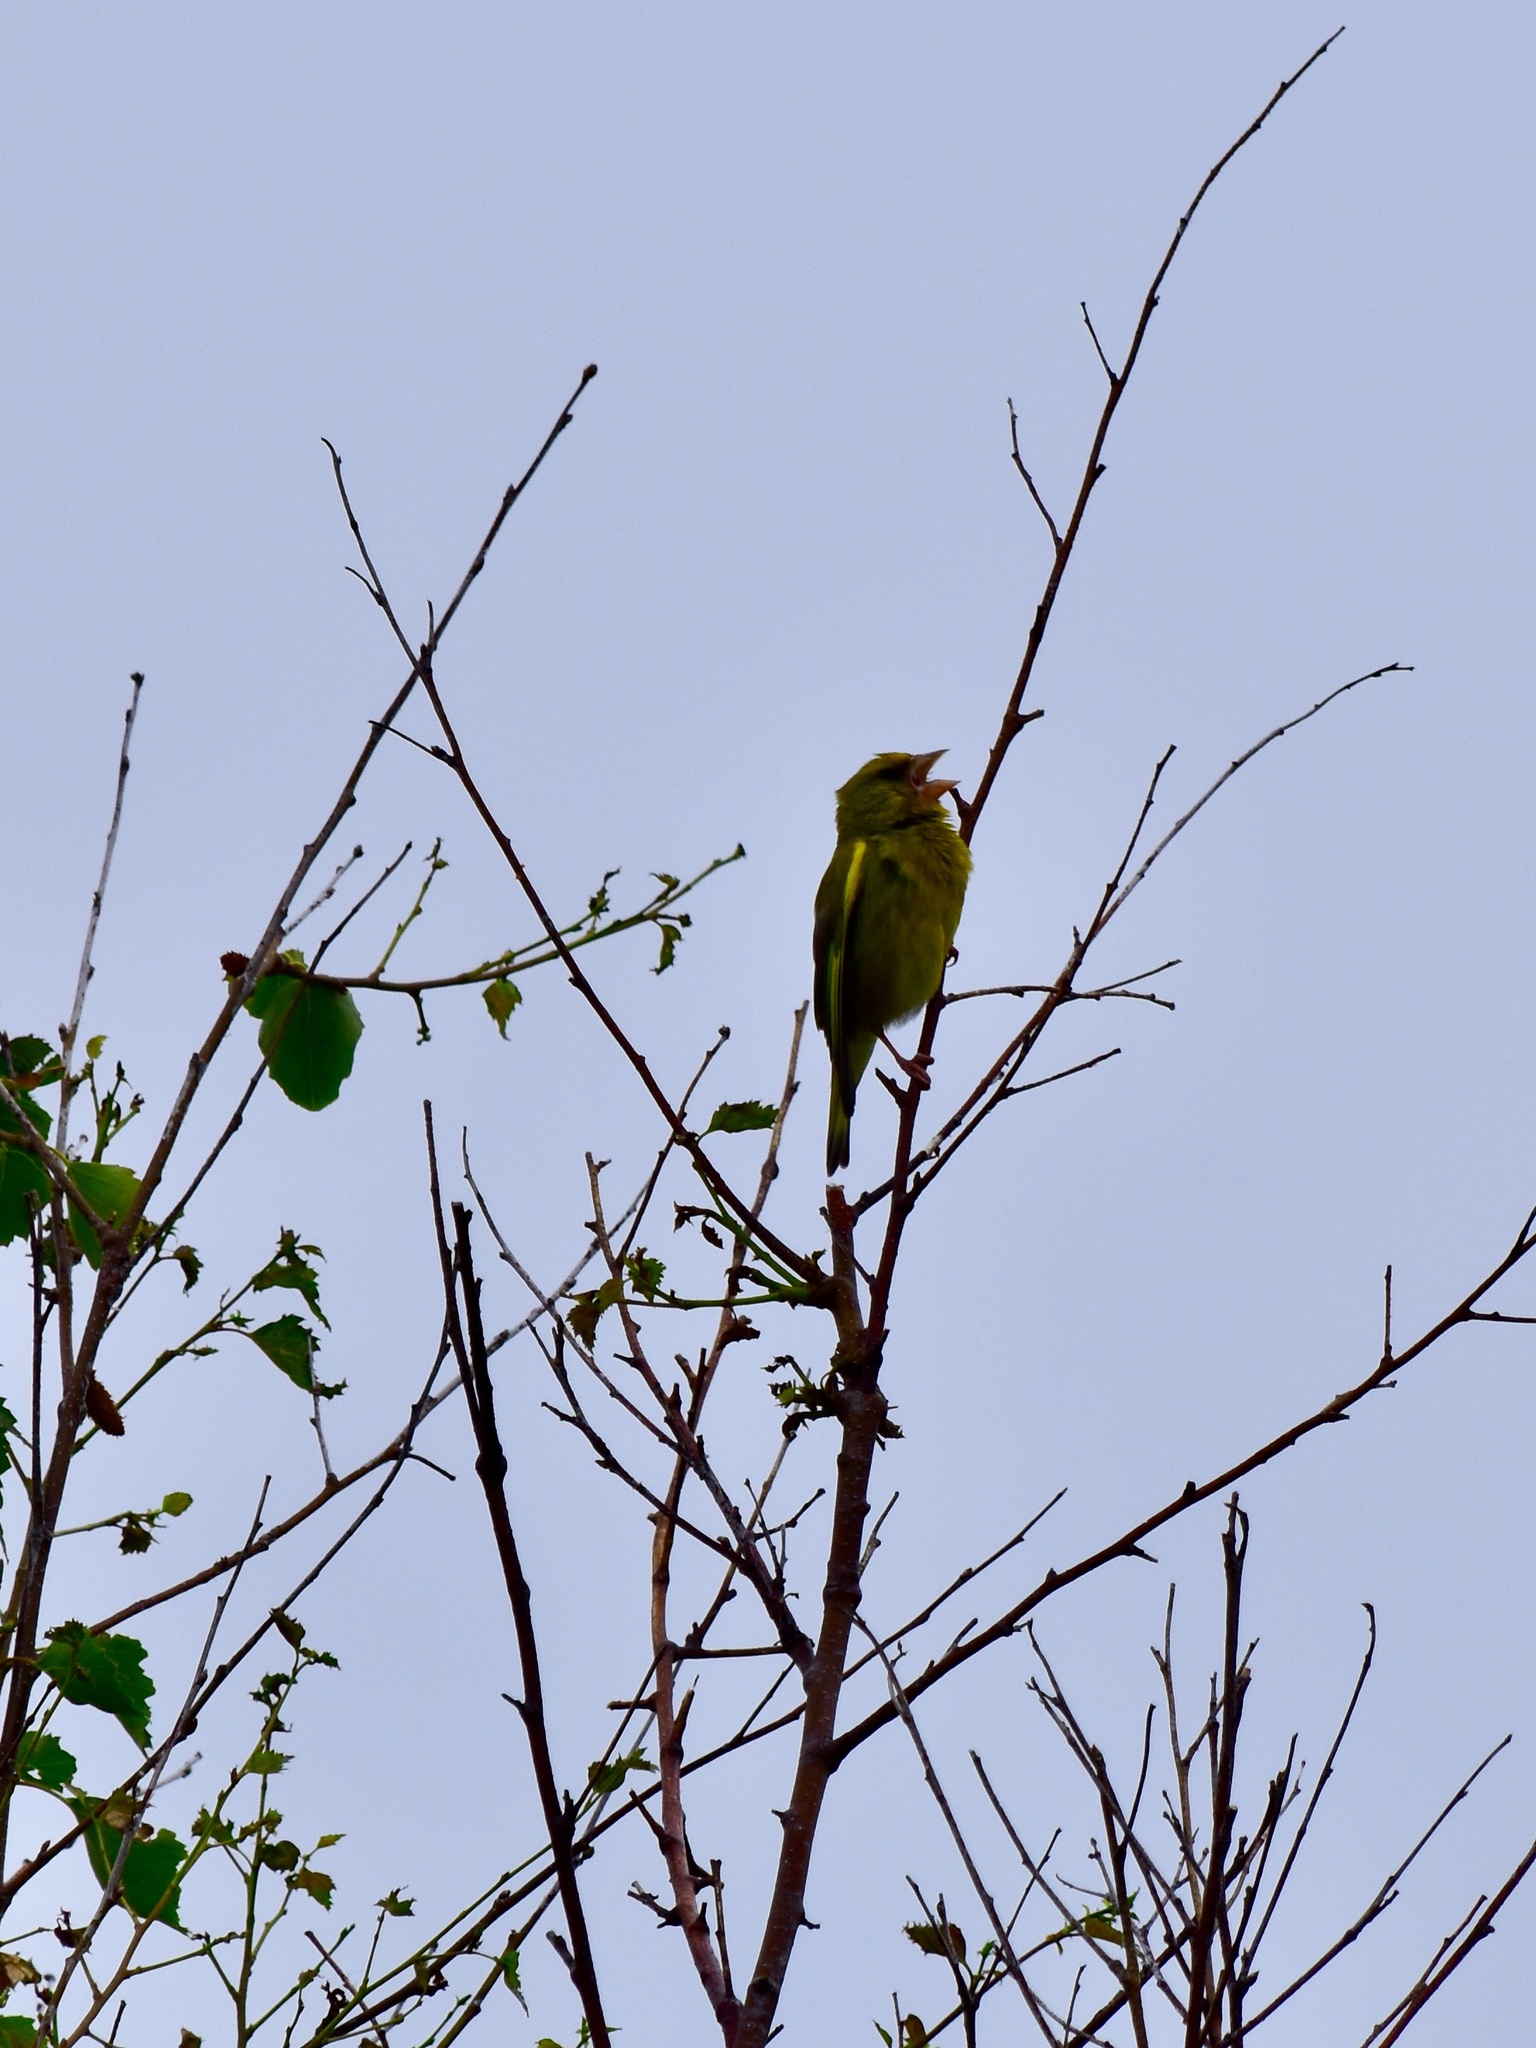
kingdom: Plantae
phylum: Tracheophyta
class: Liliopsida
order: Poales
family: Poaceae
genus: Chloris
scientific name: Chloris chloris
